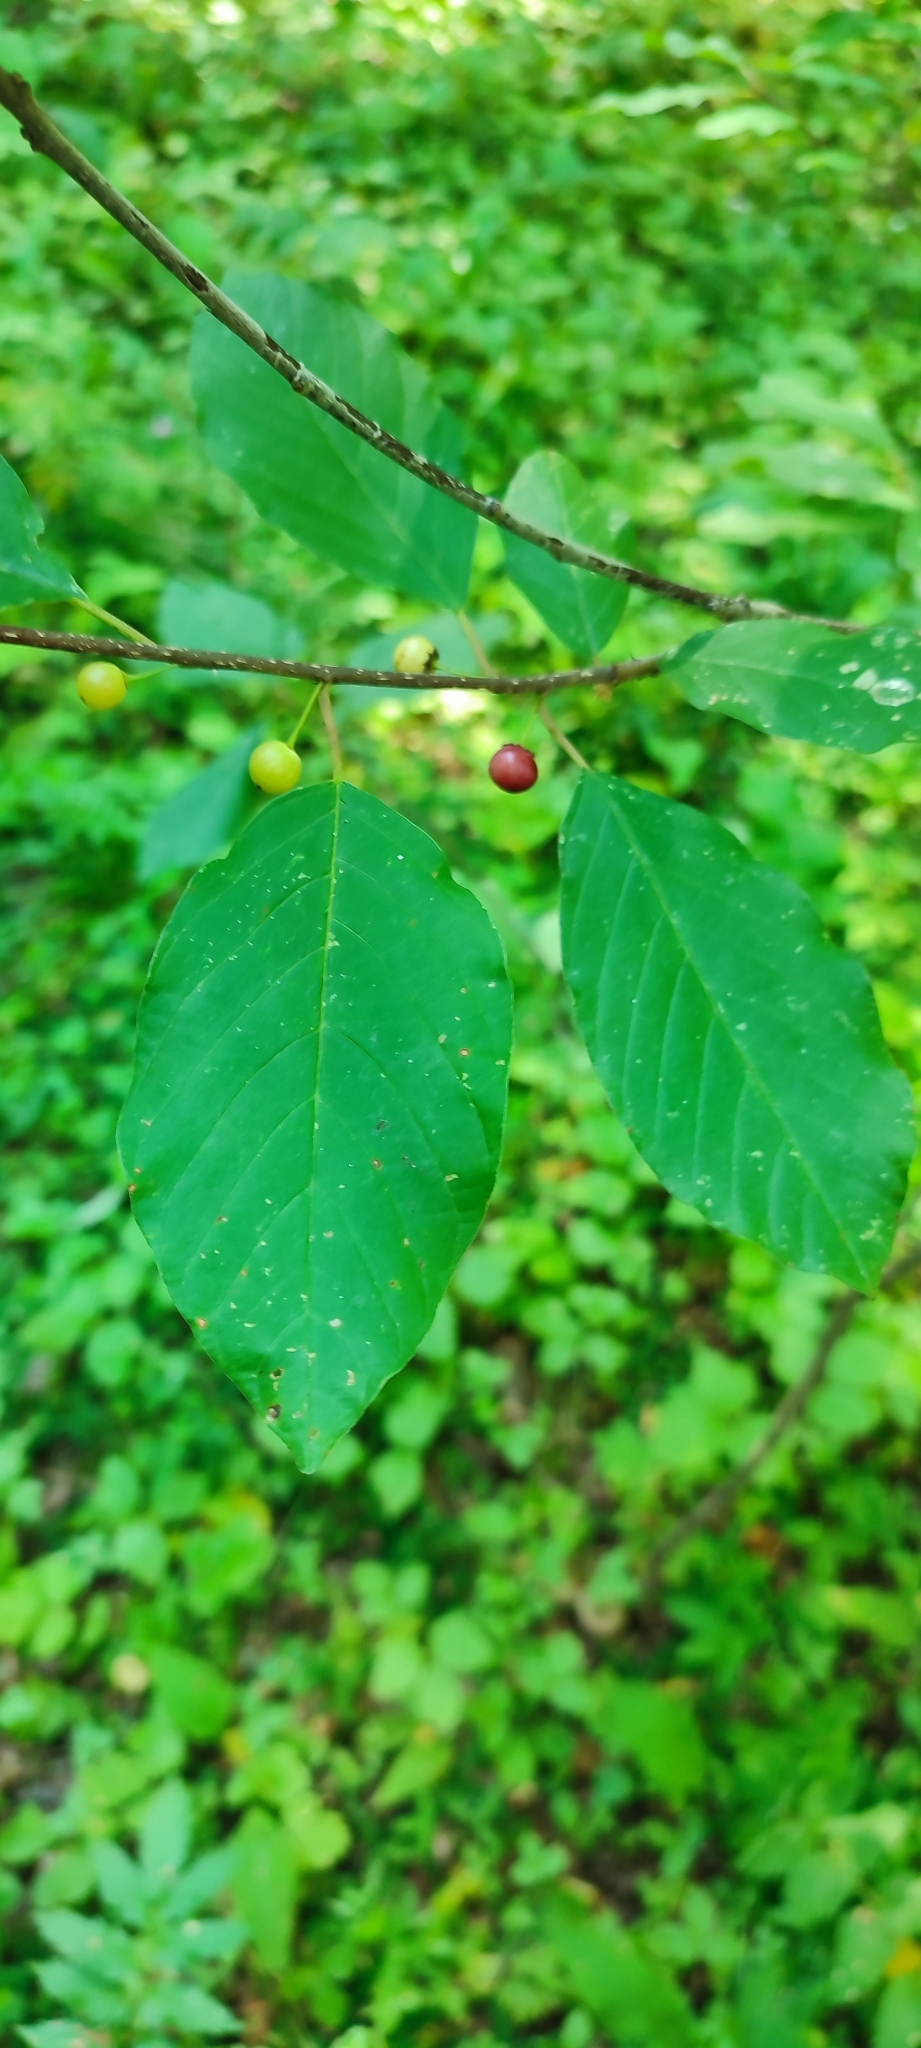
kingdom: Plantae
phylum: Tracheophyta
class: Magnoliopsida
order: Rosales
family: Rhamnaceae
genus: Frangula
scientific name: Frangula alnus
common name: Alder buckthorn
